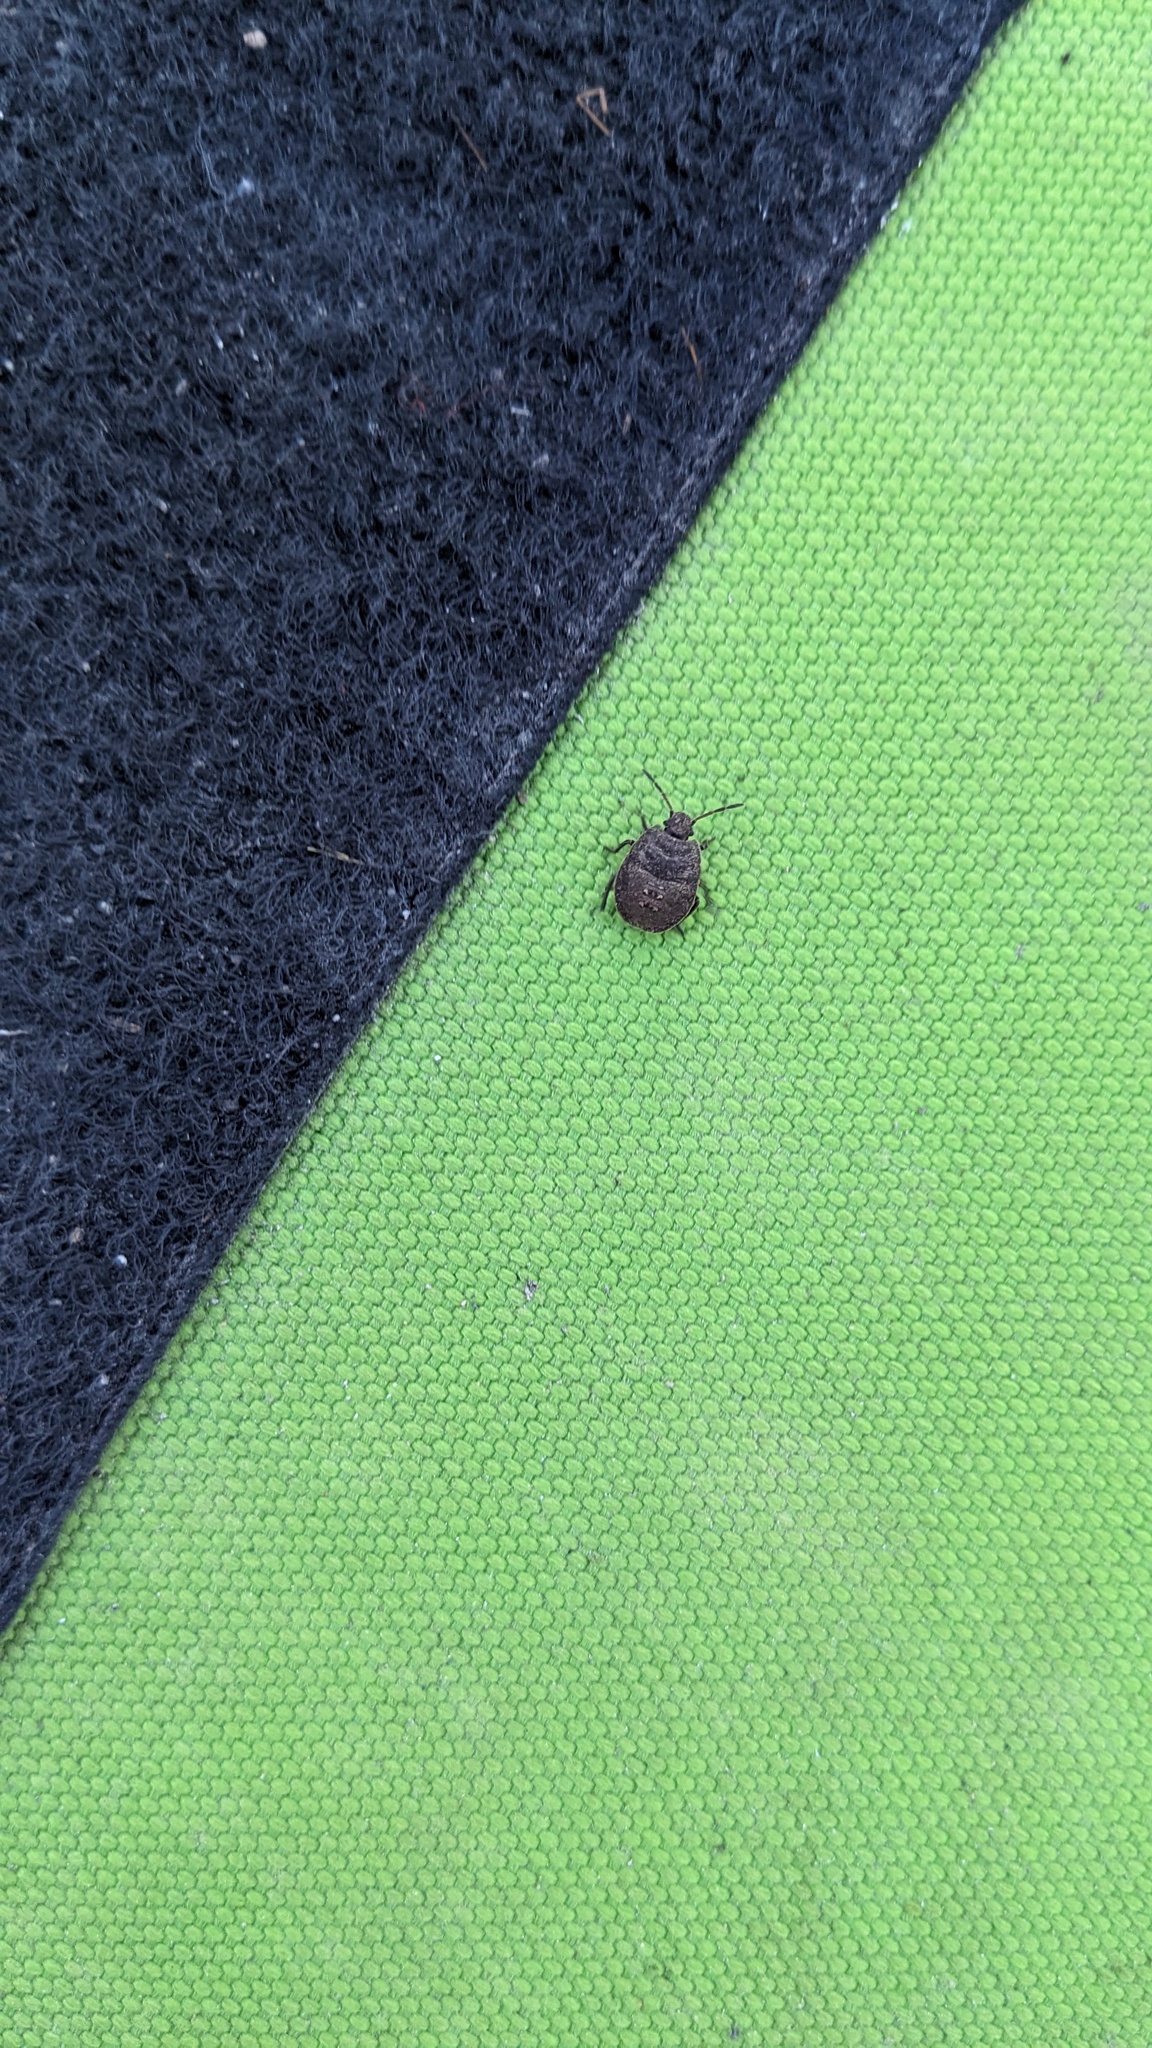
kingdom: Animalia
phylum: Arthropoda
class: Insecta
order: Hemiptera
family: Pentatomidae
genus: Menecles
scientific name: Menecles insertus
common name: Elf shoe stink bug
